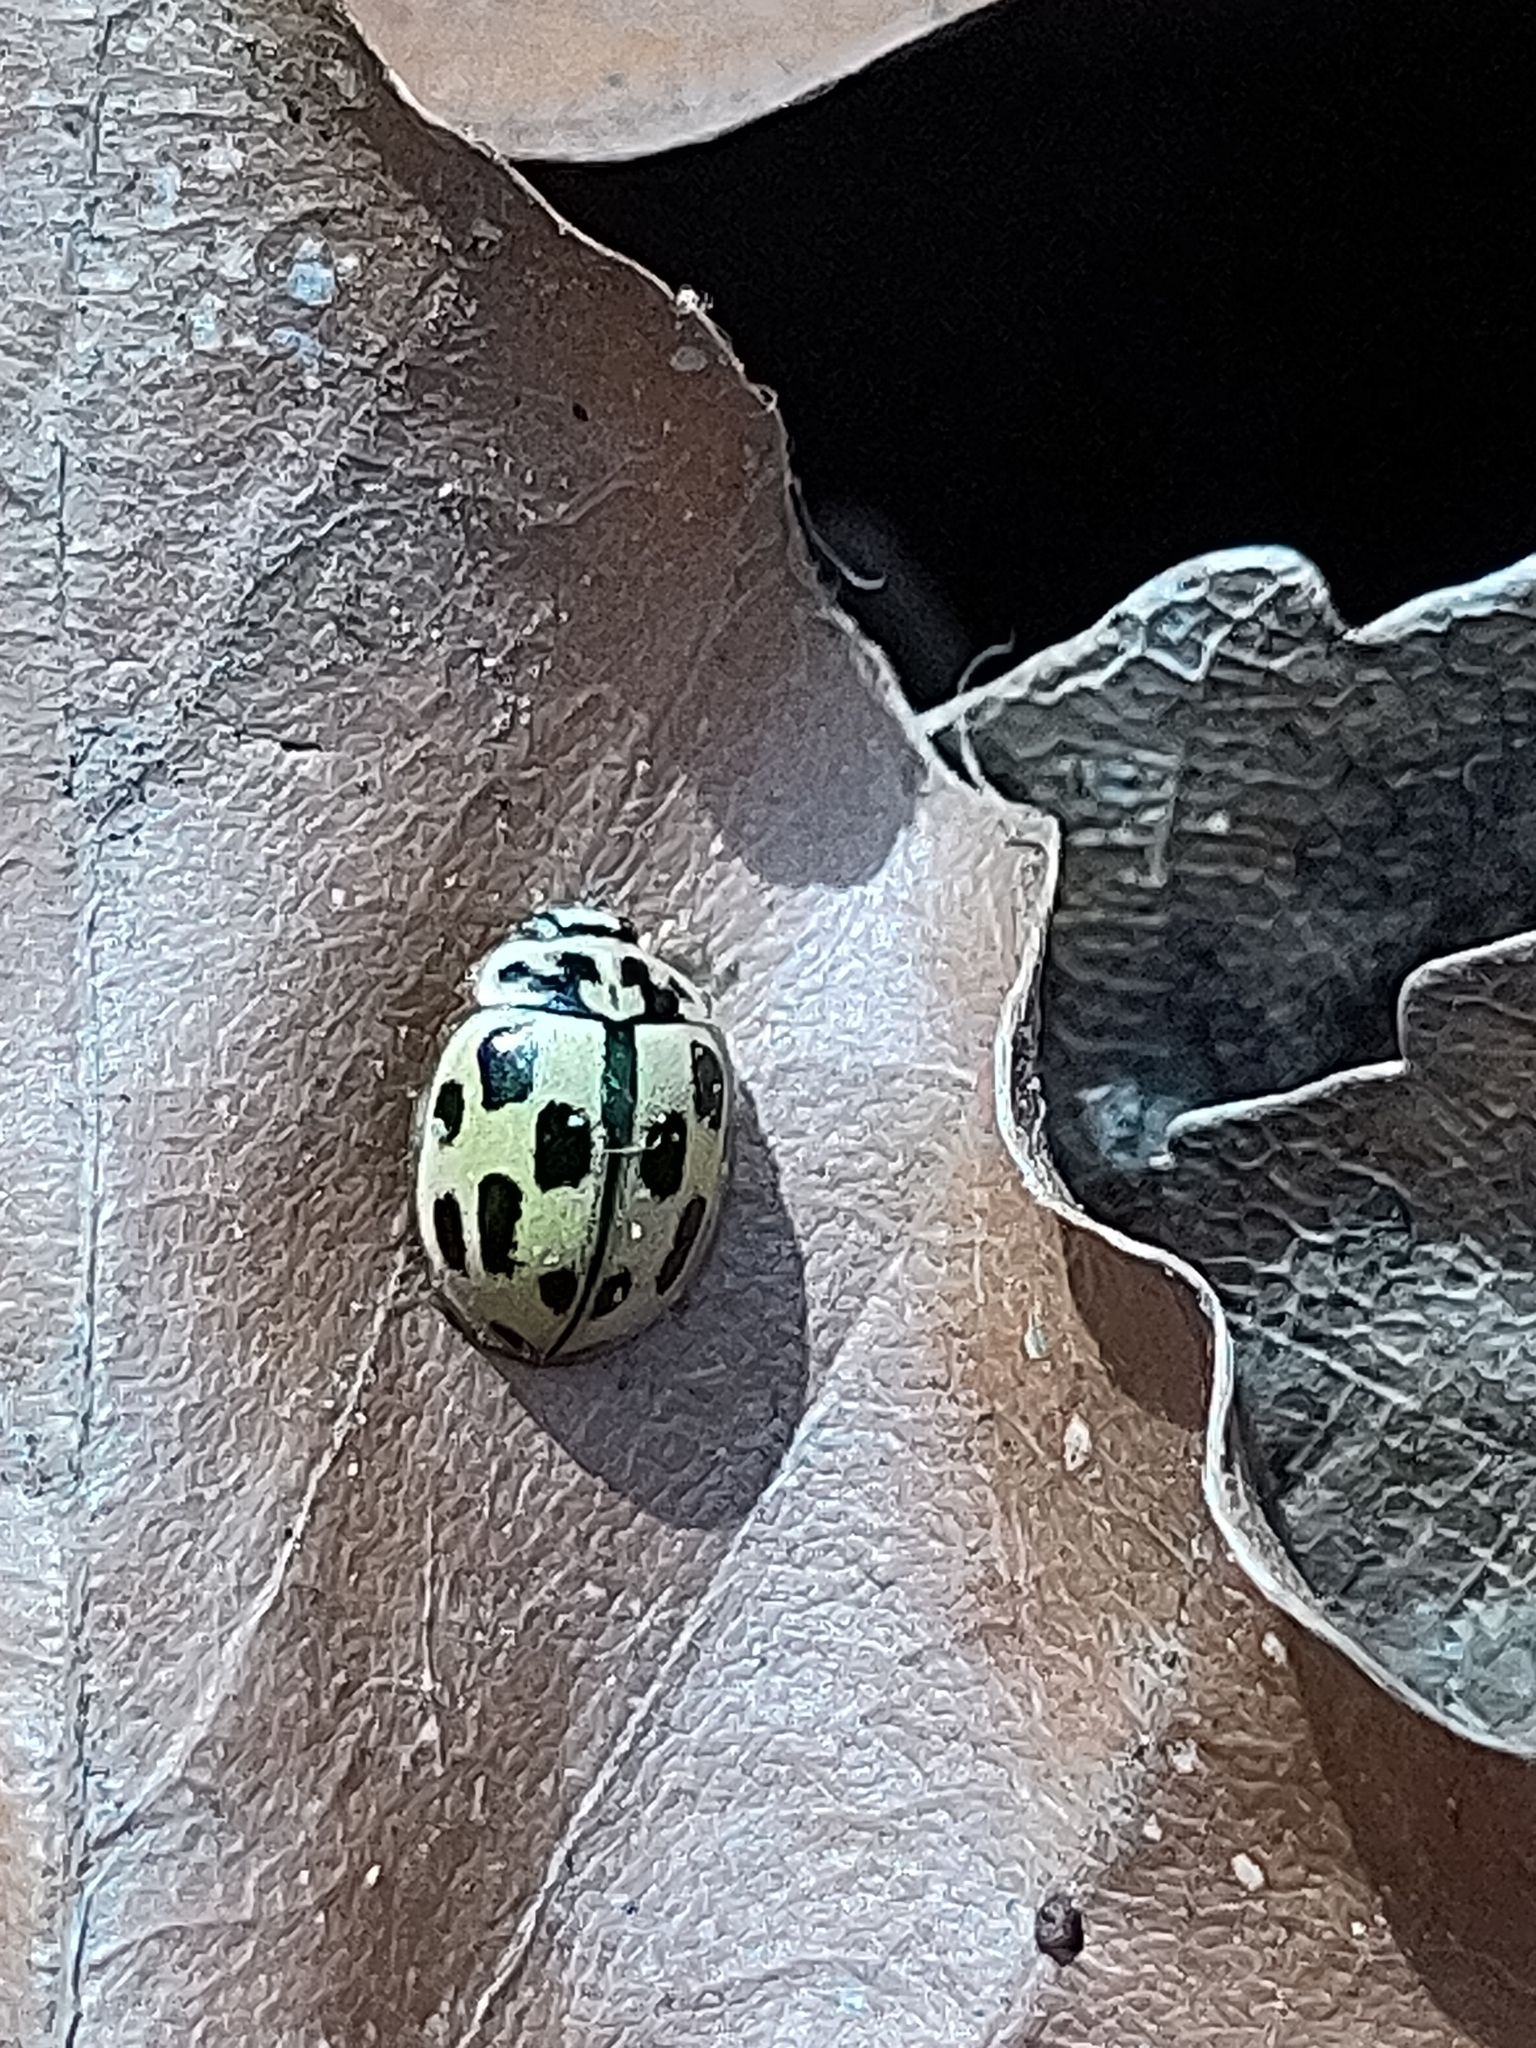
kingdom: Animalia
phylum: Arthropoda
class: Insecta
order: Coleoptera
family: Coccinellidae
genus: Propylaea
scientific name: Propylaea quatuordecimpunctata
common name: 14-spotted ladybird beetle
